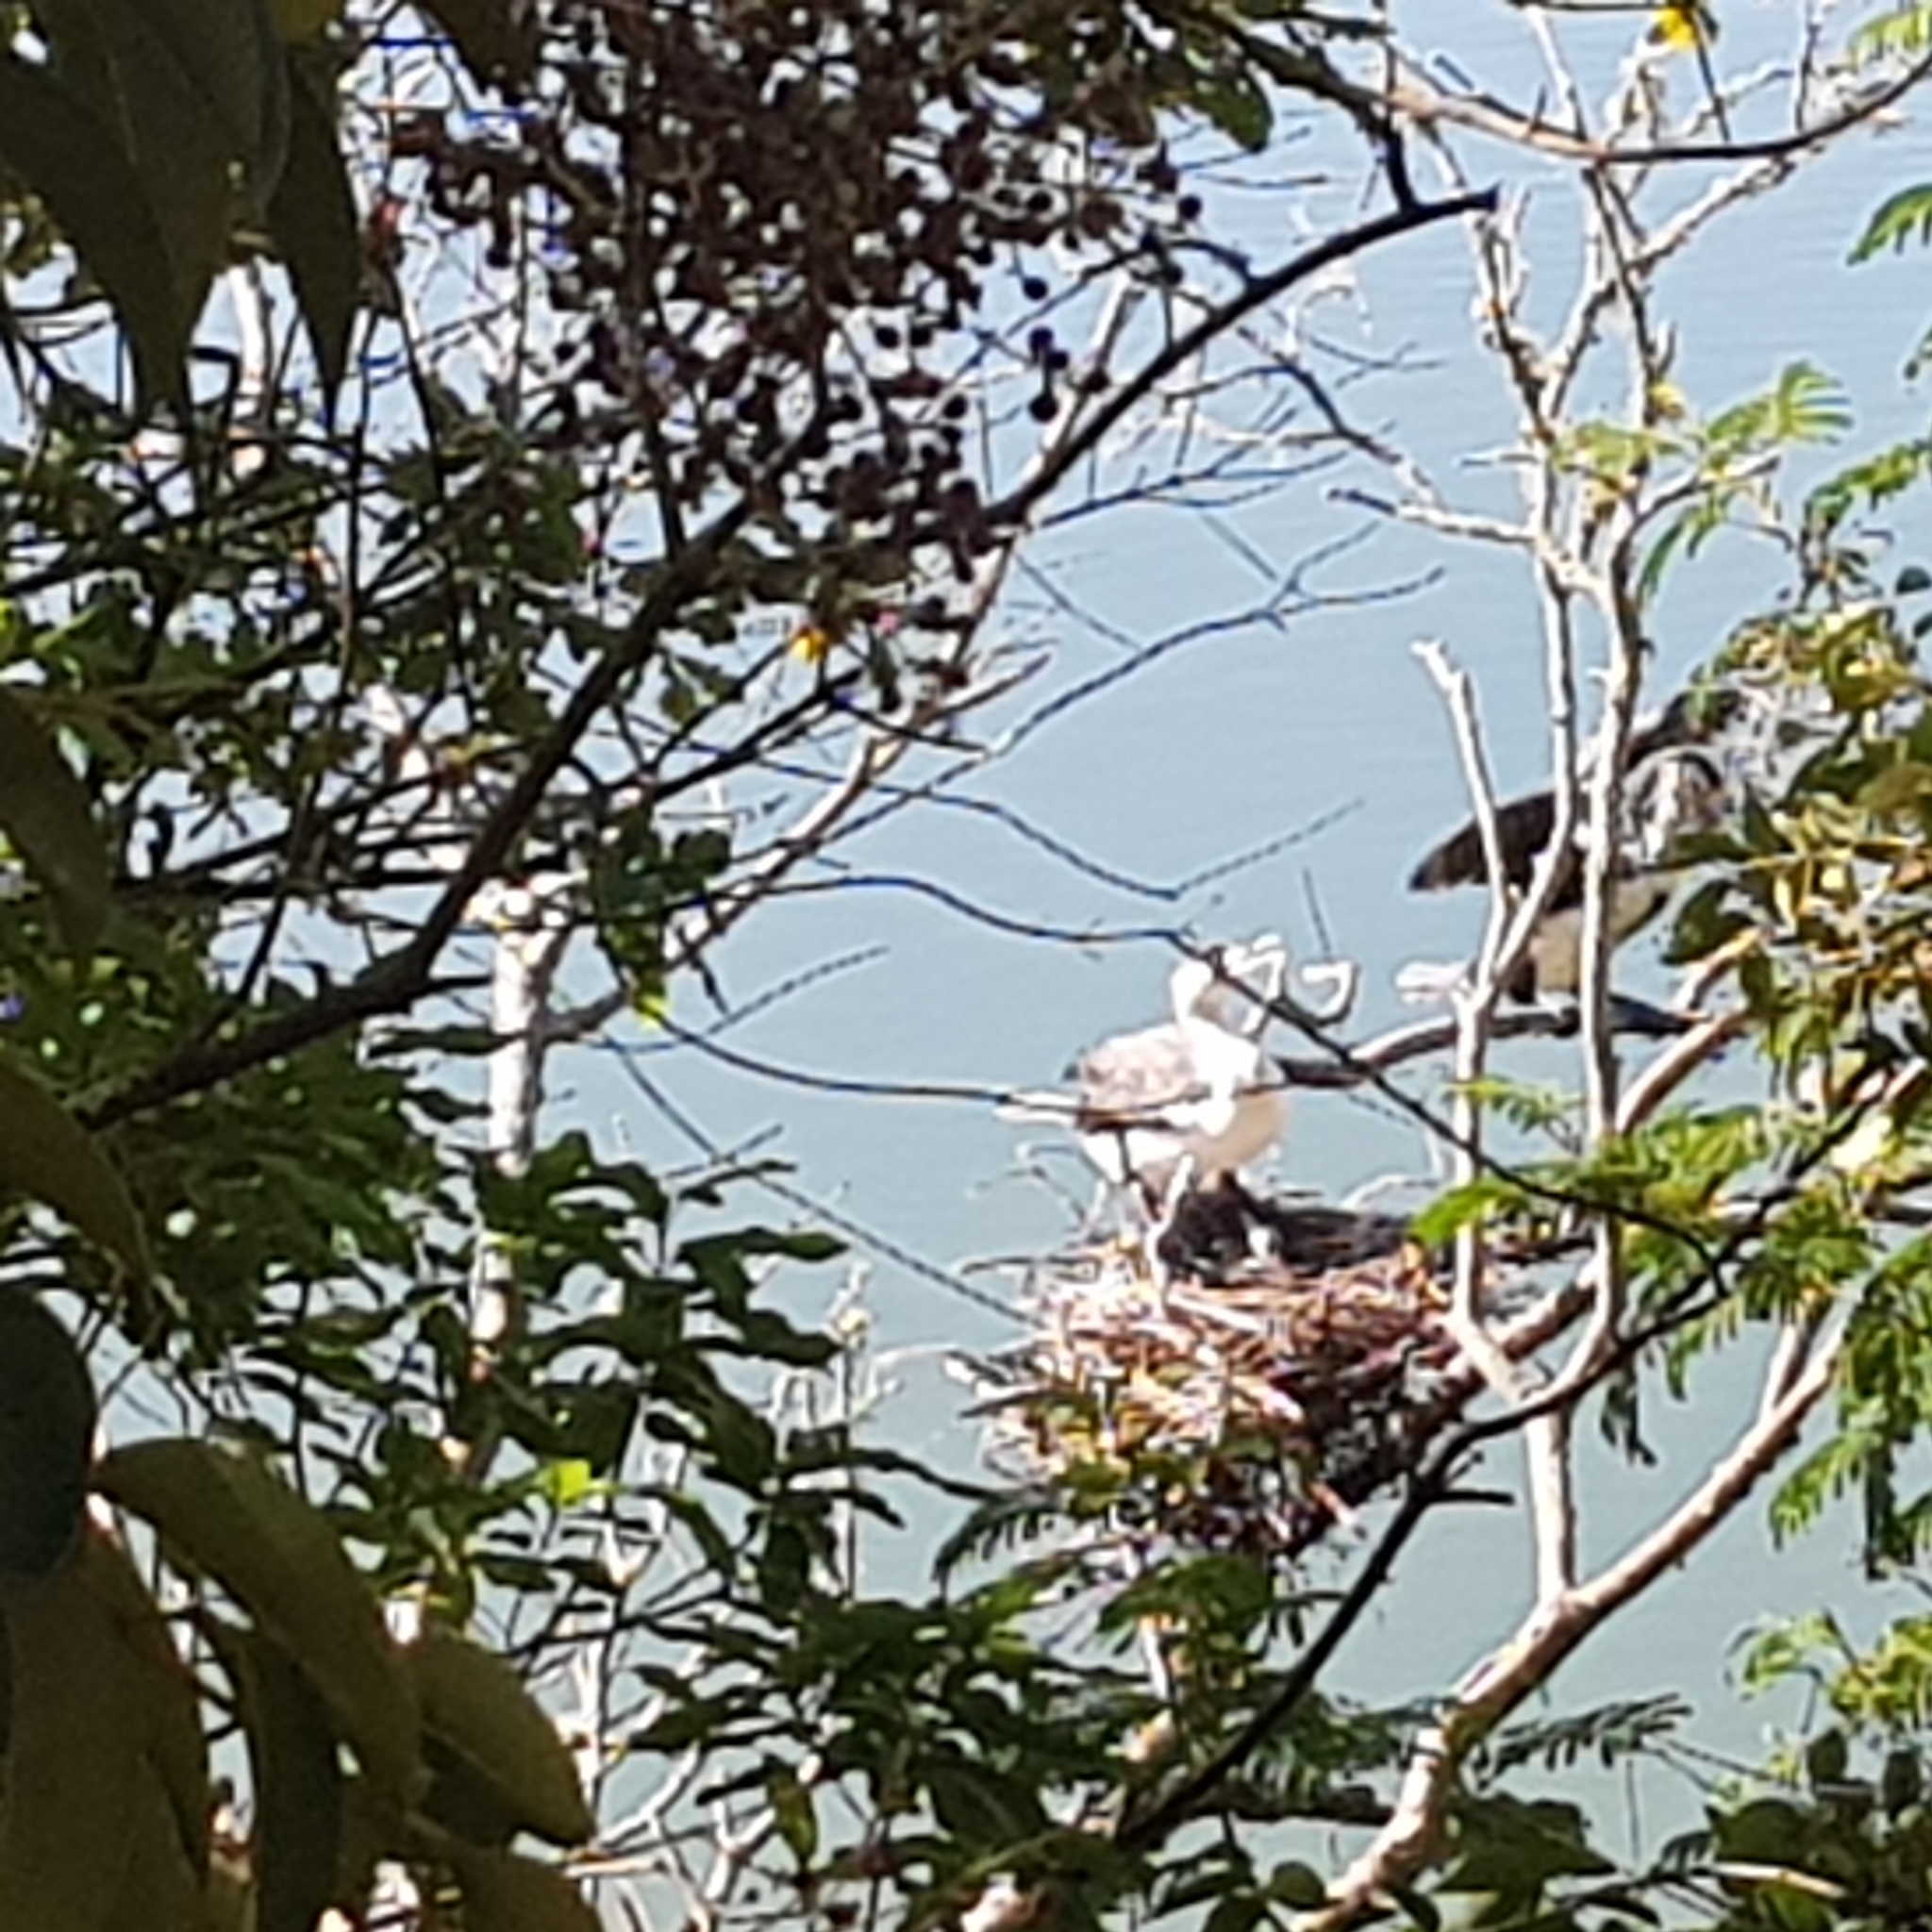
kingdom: Animalia
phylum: Chordata
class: Aves
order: Suliformes
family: Phalacrocoracidae
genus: Phalacrocorax
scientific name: Phalacrocorax varius
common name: Pied cormorant
